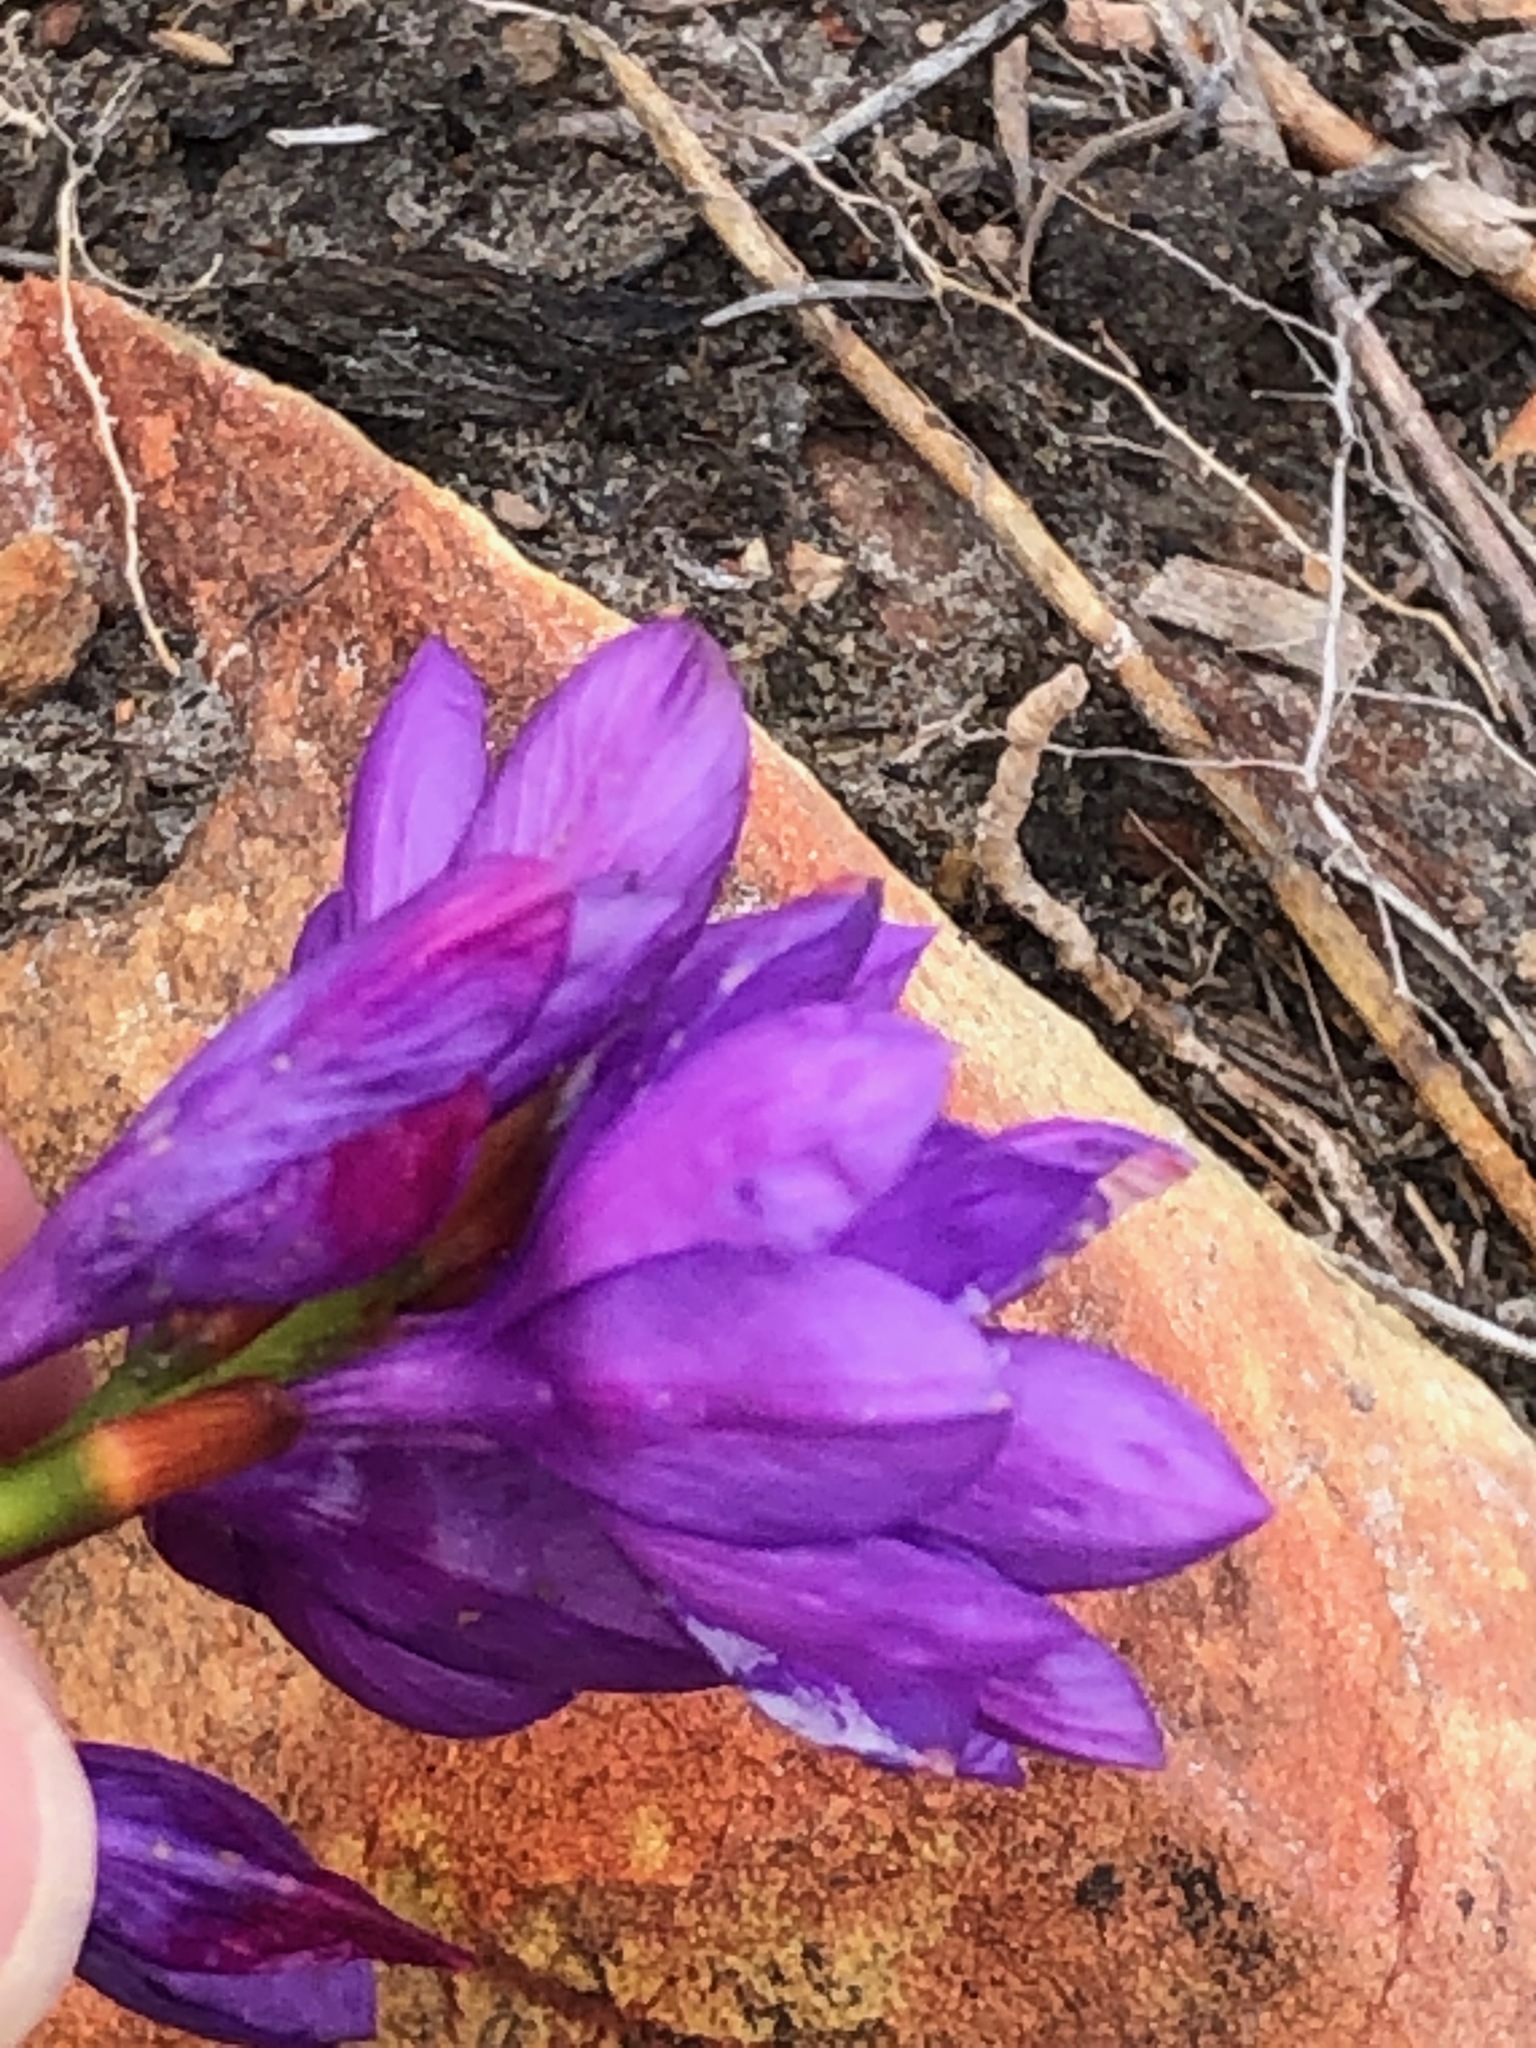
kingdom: Plantae
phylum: Tracheophyta
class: Liliopsida
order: Asparagales
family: Iridaceae
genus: Thereianthus
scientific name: Thereianthus bracteolatus
